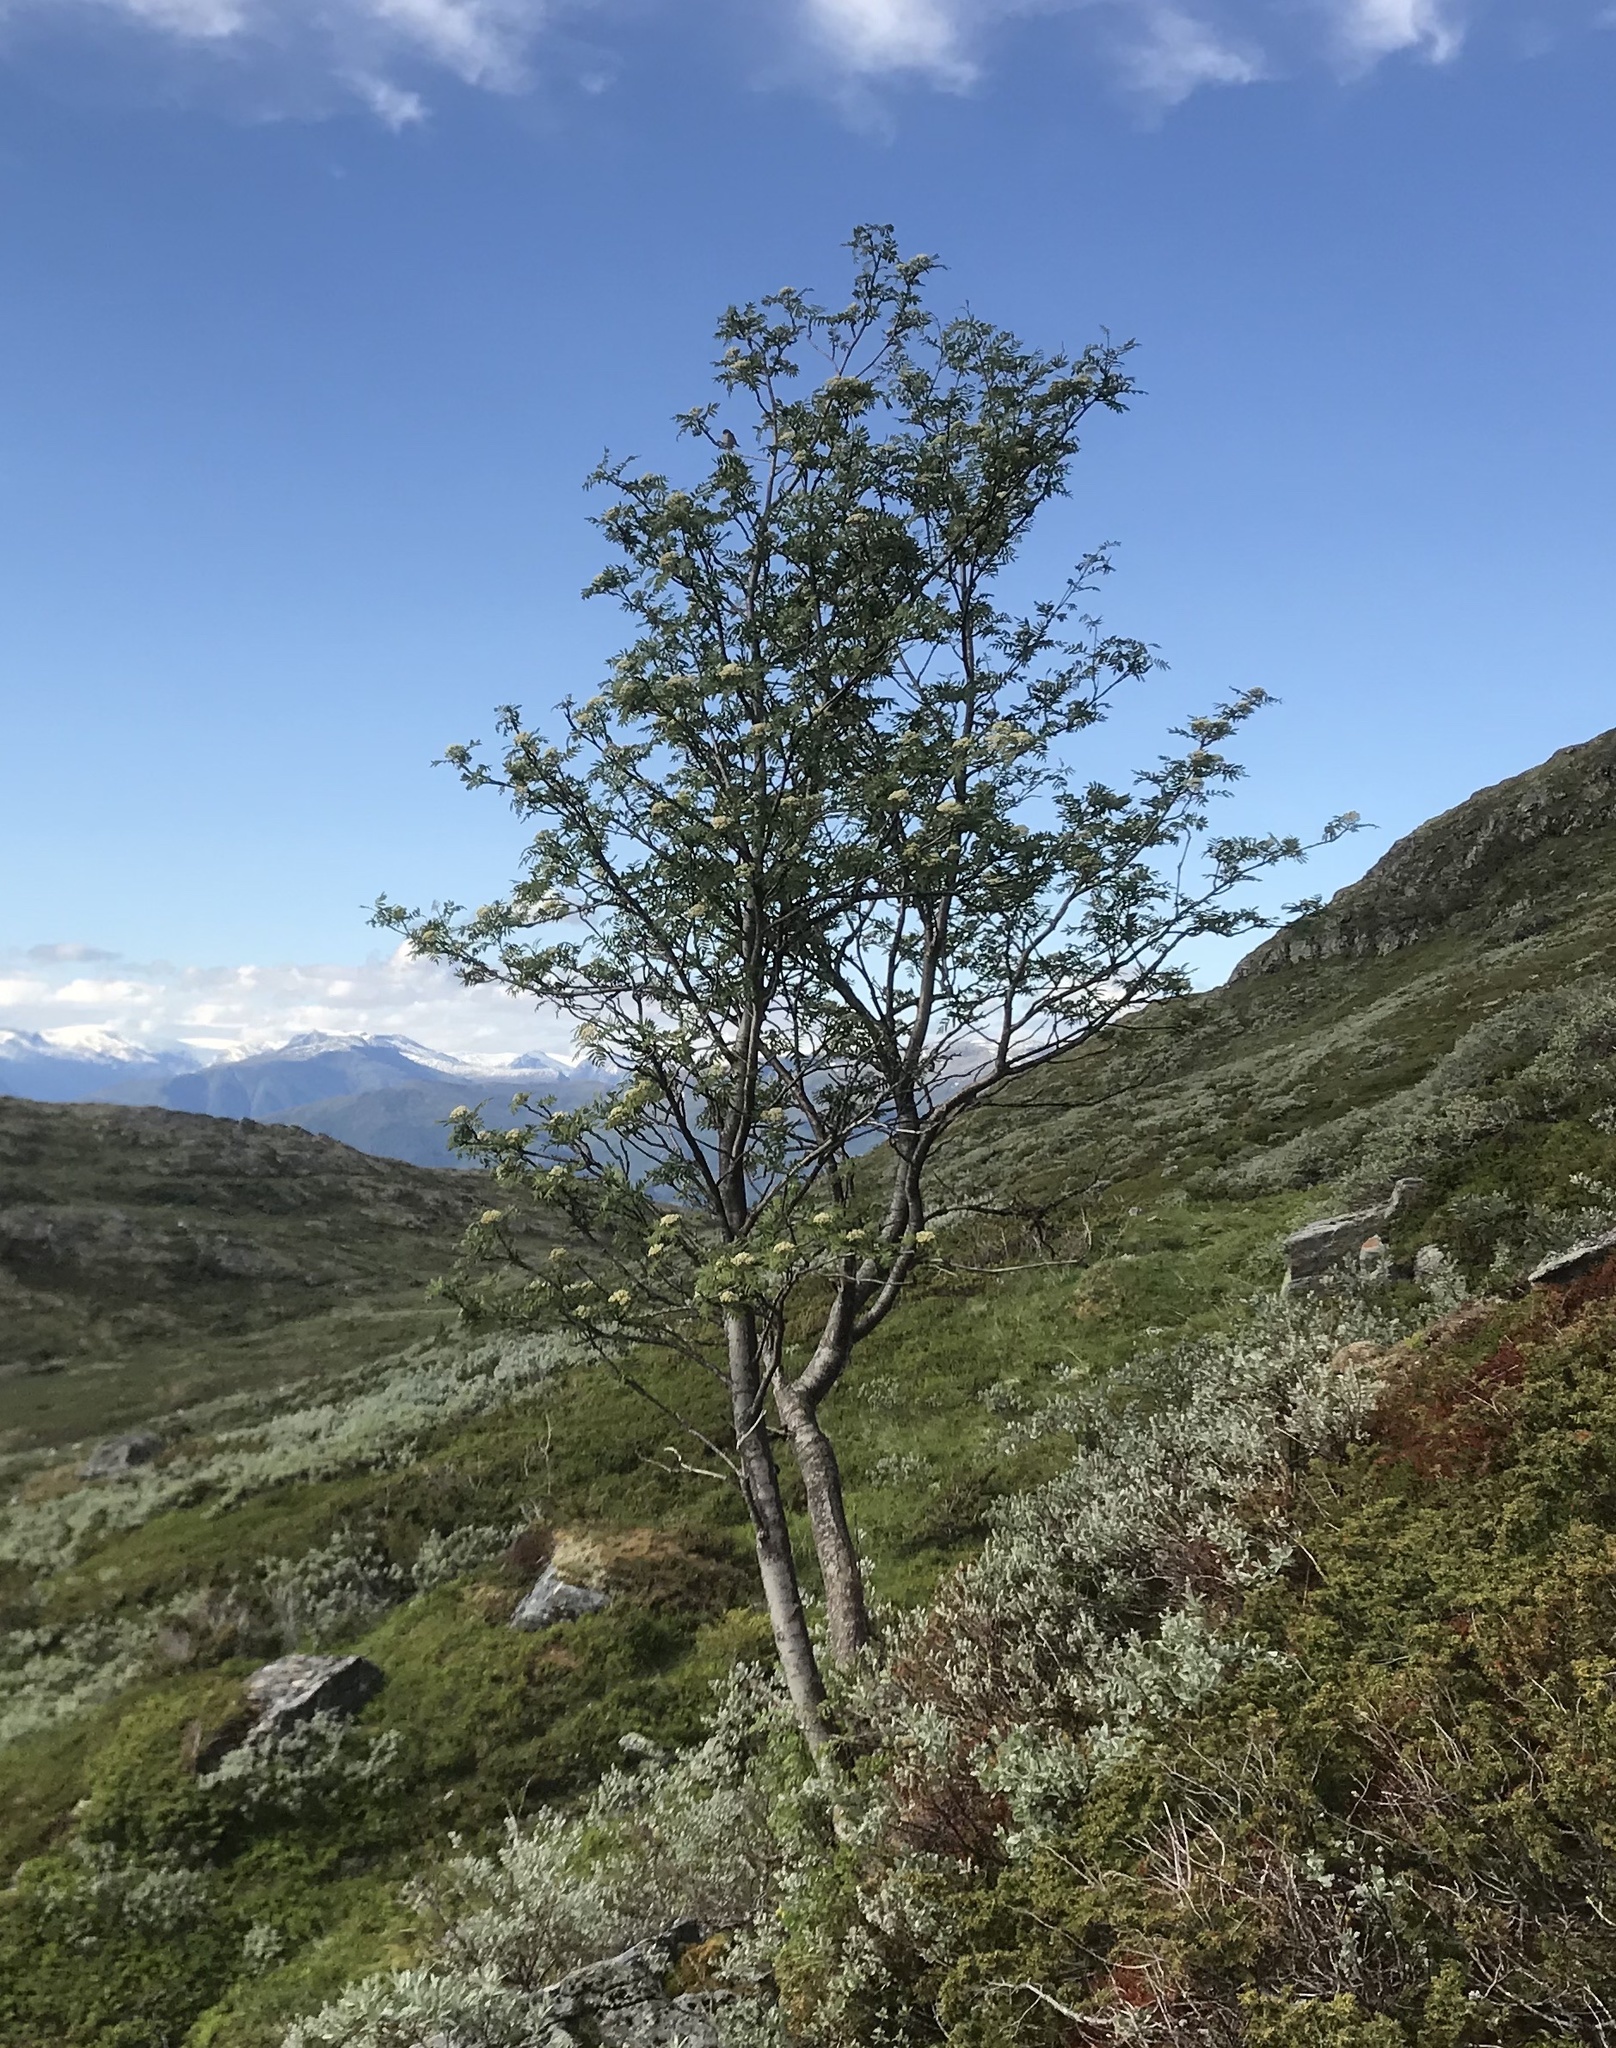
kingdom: Plantae
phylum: Tracheophyta
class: Magnoliopsida
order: Rosales
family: Rosaceae
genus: Sorbus
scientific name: Sorbus aucuparia
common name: Rowan
